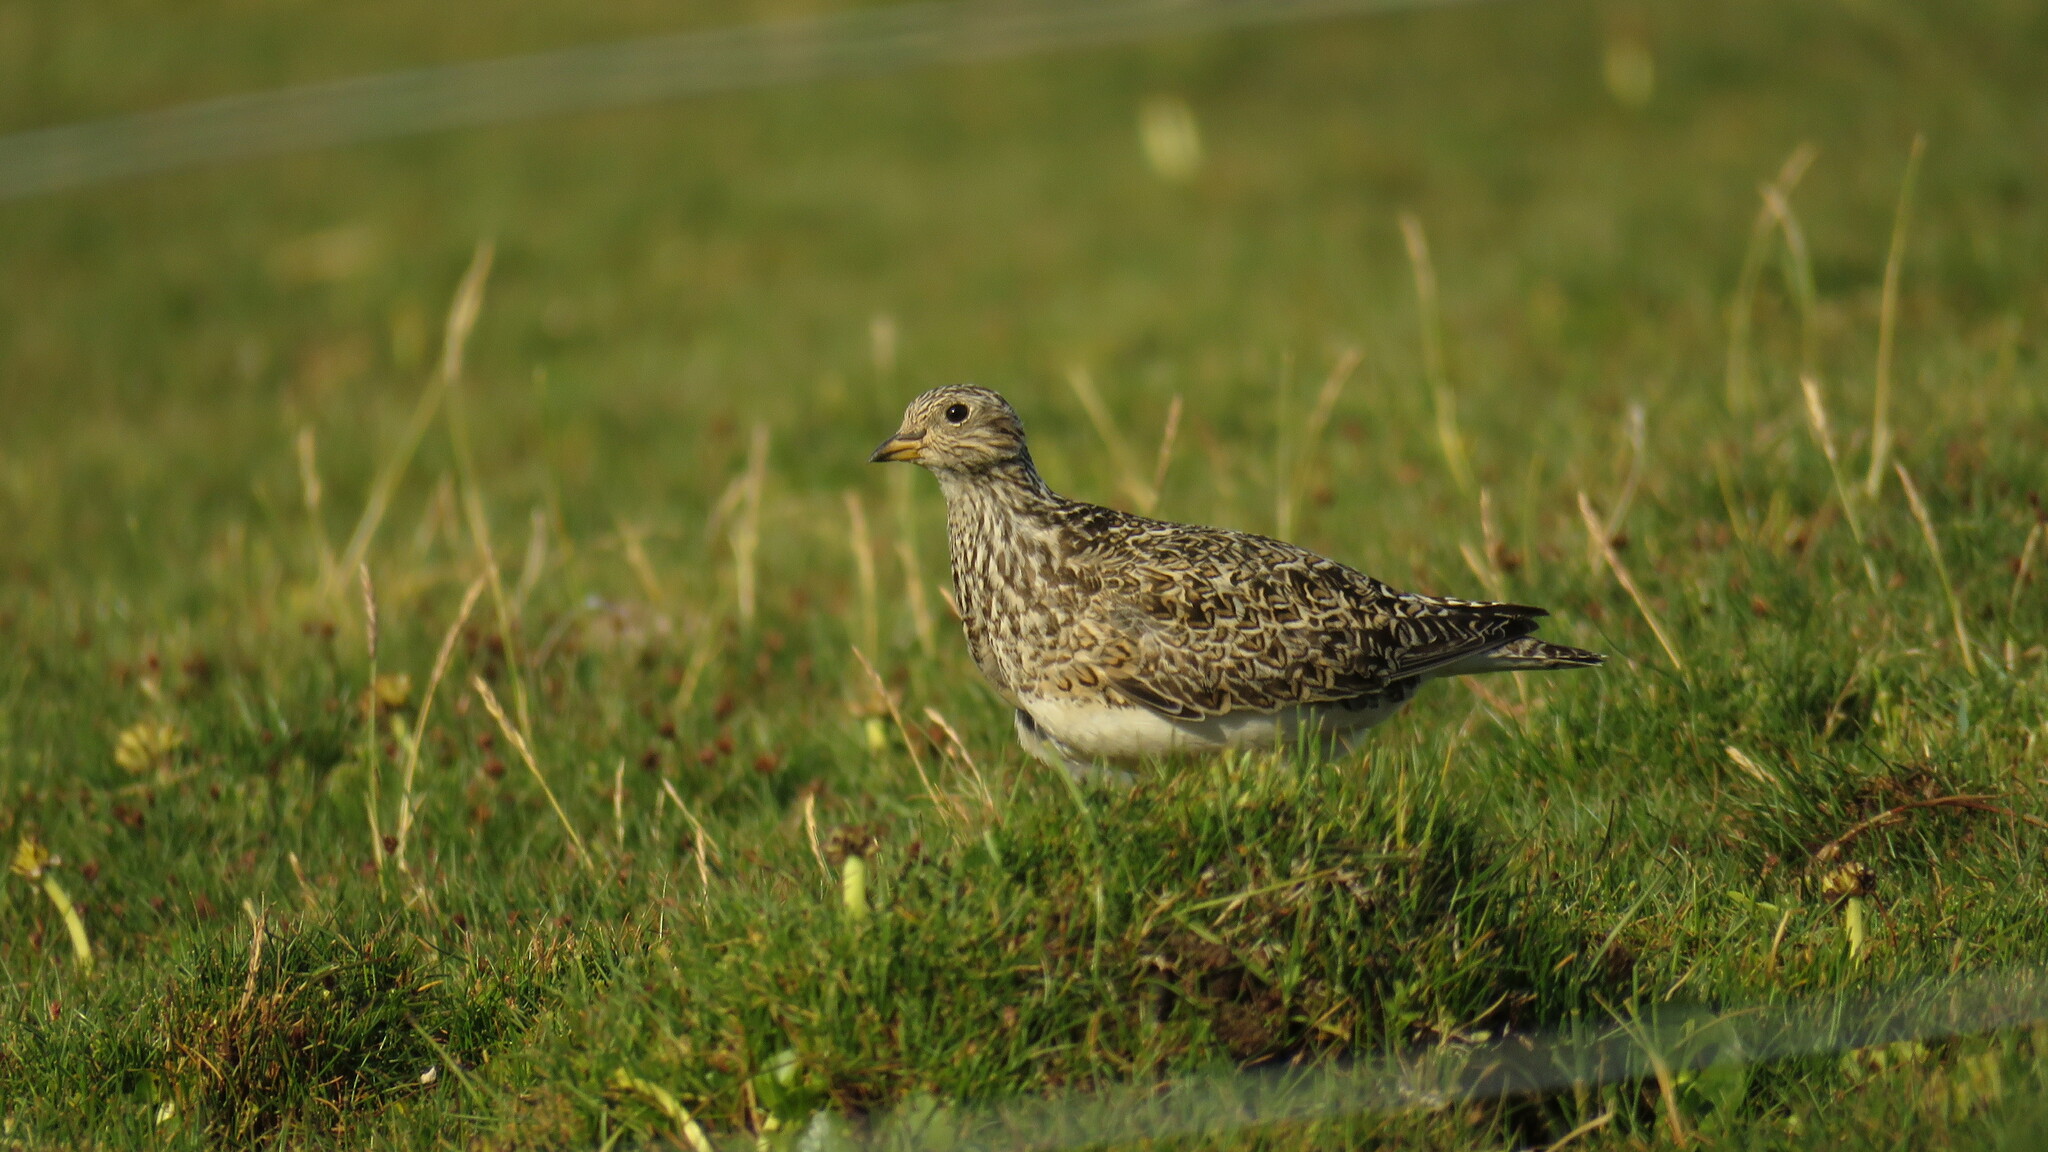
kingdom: Animalia
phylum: Chordata
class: Aves
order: Charadriiformes
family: Thinocoridae
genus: Thinocorus
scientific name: Thinocorus orbignyianus
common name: Grey-breasted seedsnipe
